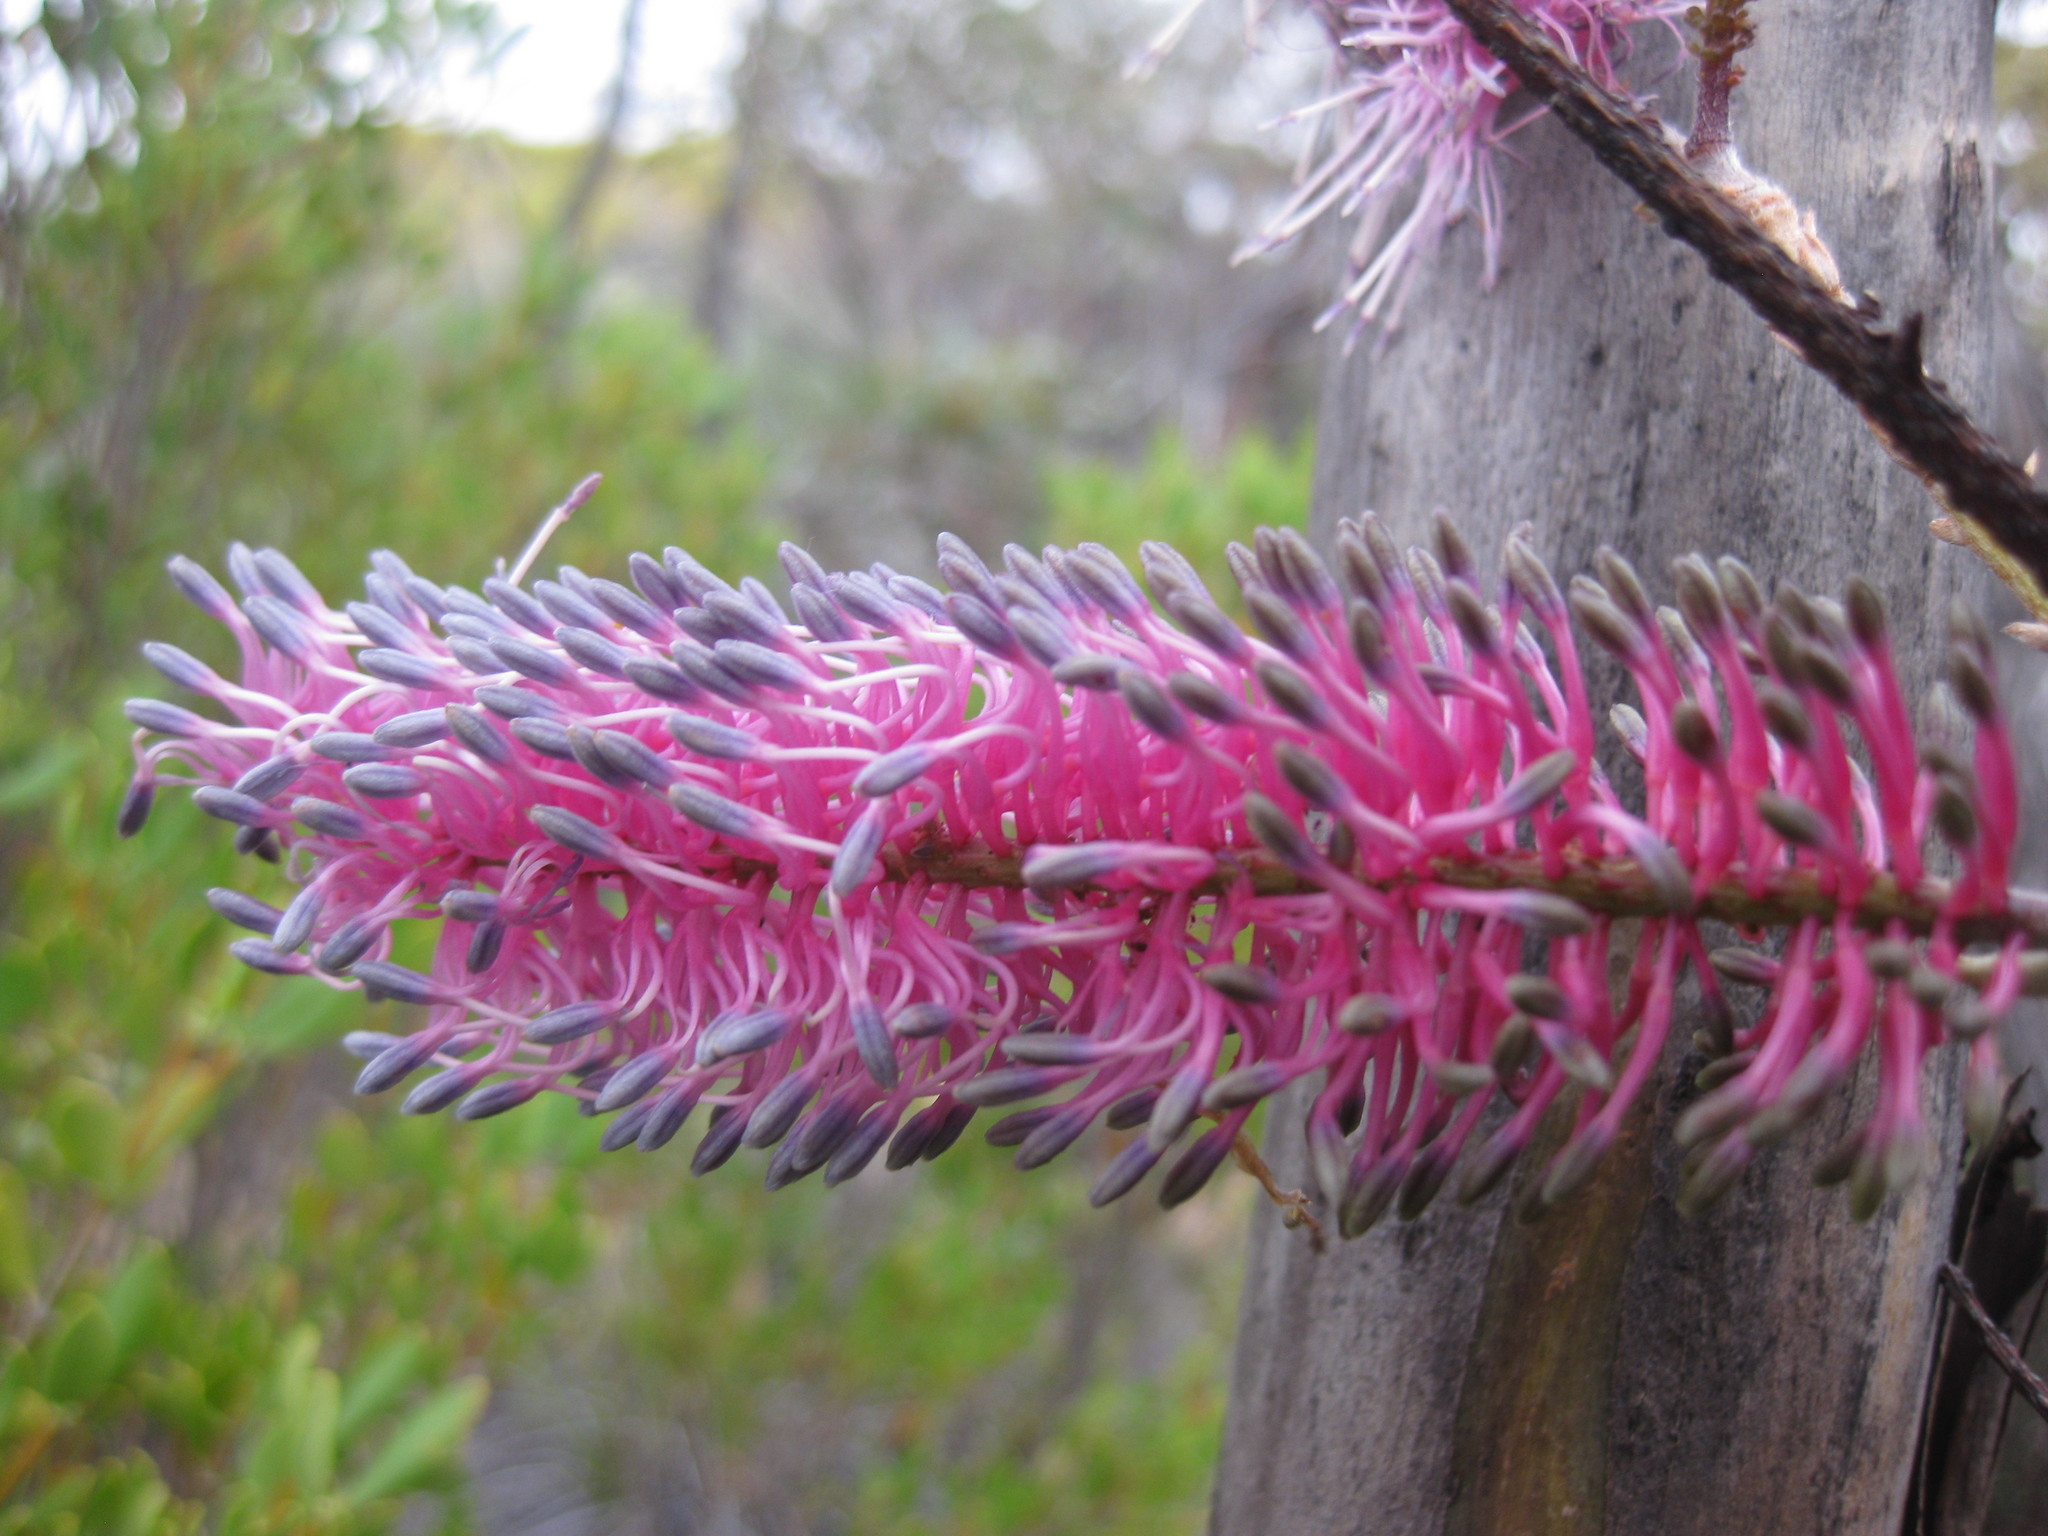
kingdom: Plantae
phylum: Tracheophyta
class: Magnoliopsida
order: Proteales
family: Proteaceae
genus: Grevillea
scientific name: Grevillea petrophiloides
